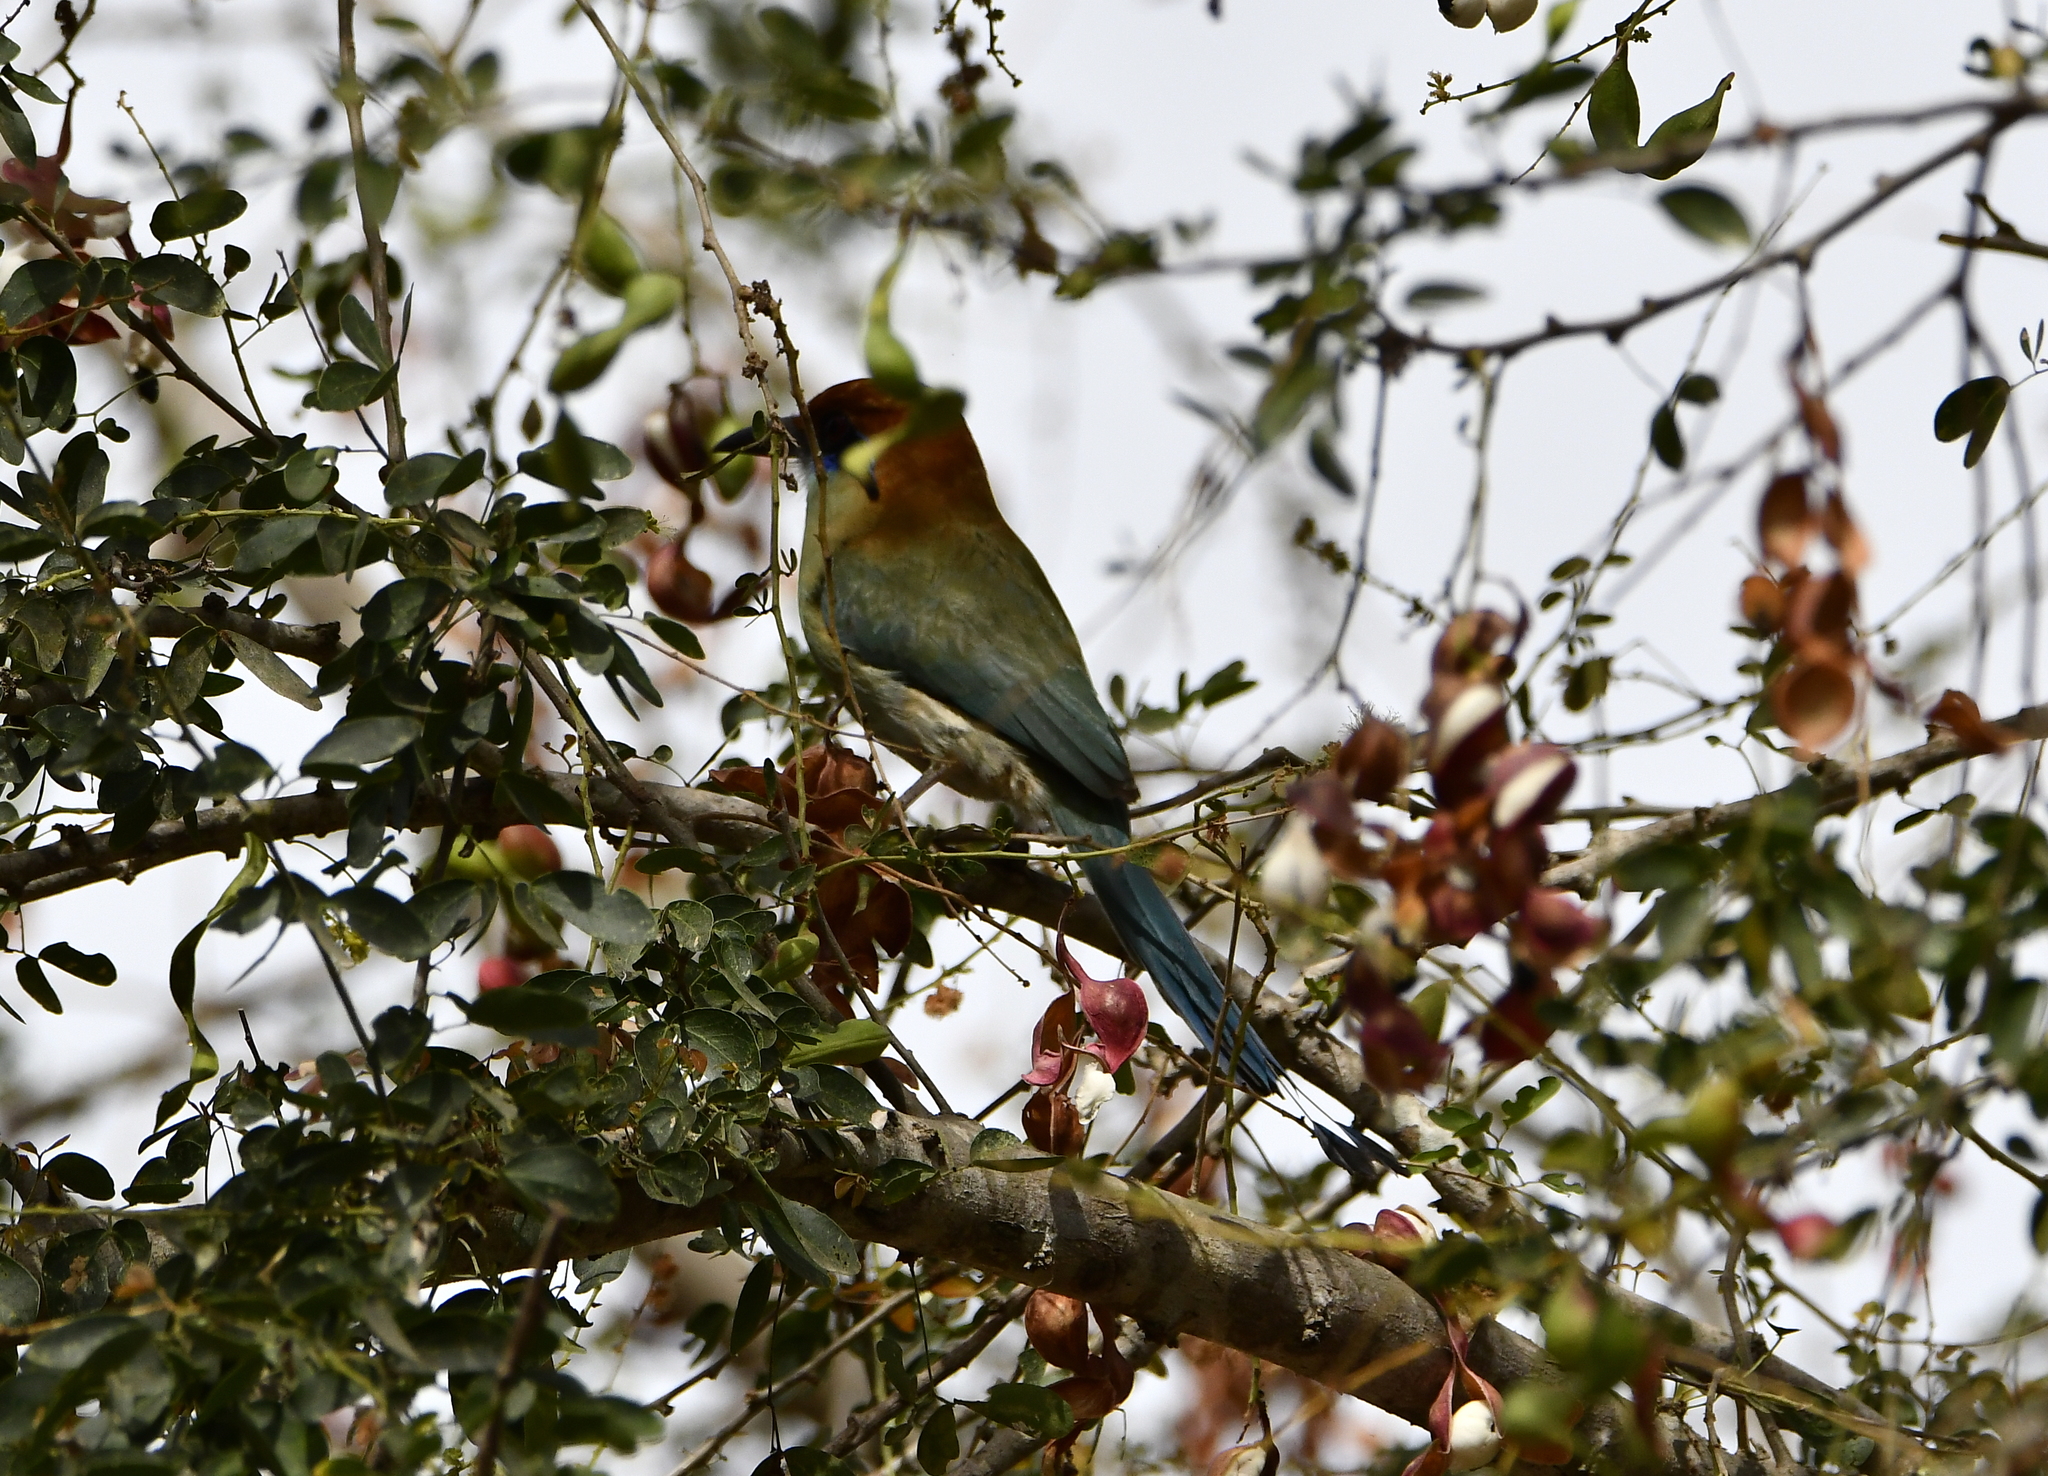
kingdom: Animalia
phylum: Chordata
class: Aves
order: Coraciiformes
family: Momotidae
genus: Momotus
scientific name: Momotus mexicanus
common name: Russet-crowned motmot
